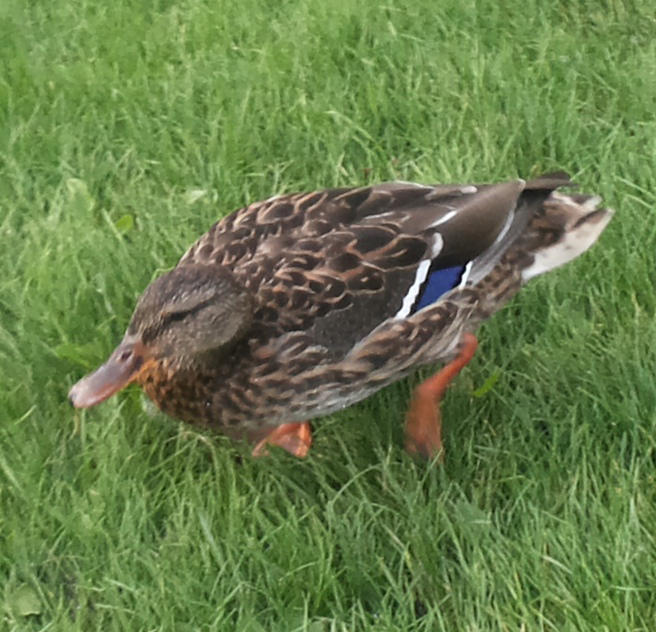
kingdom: Animalia
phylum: Chordata
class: Aves
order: Anseriformes
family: Anatidae
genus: Anas
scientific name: Anas platyrhynchos
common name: Mallard
